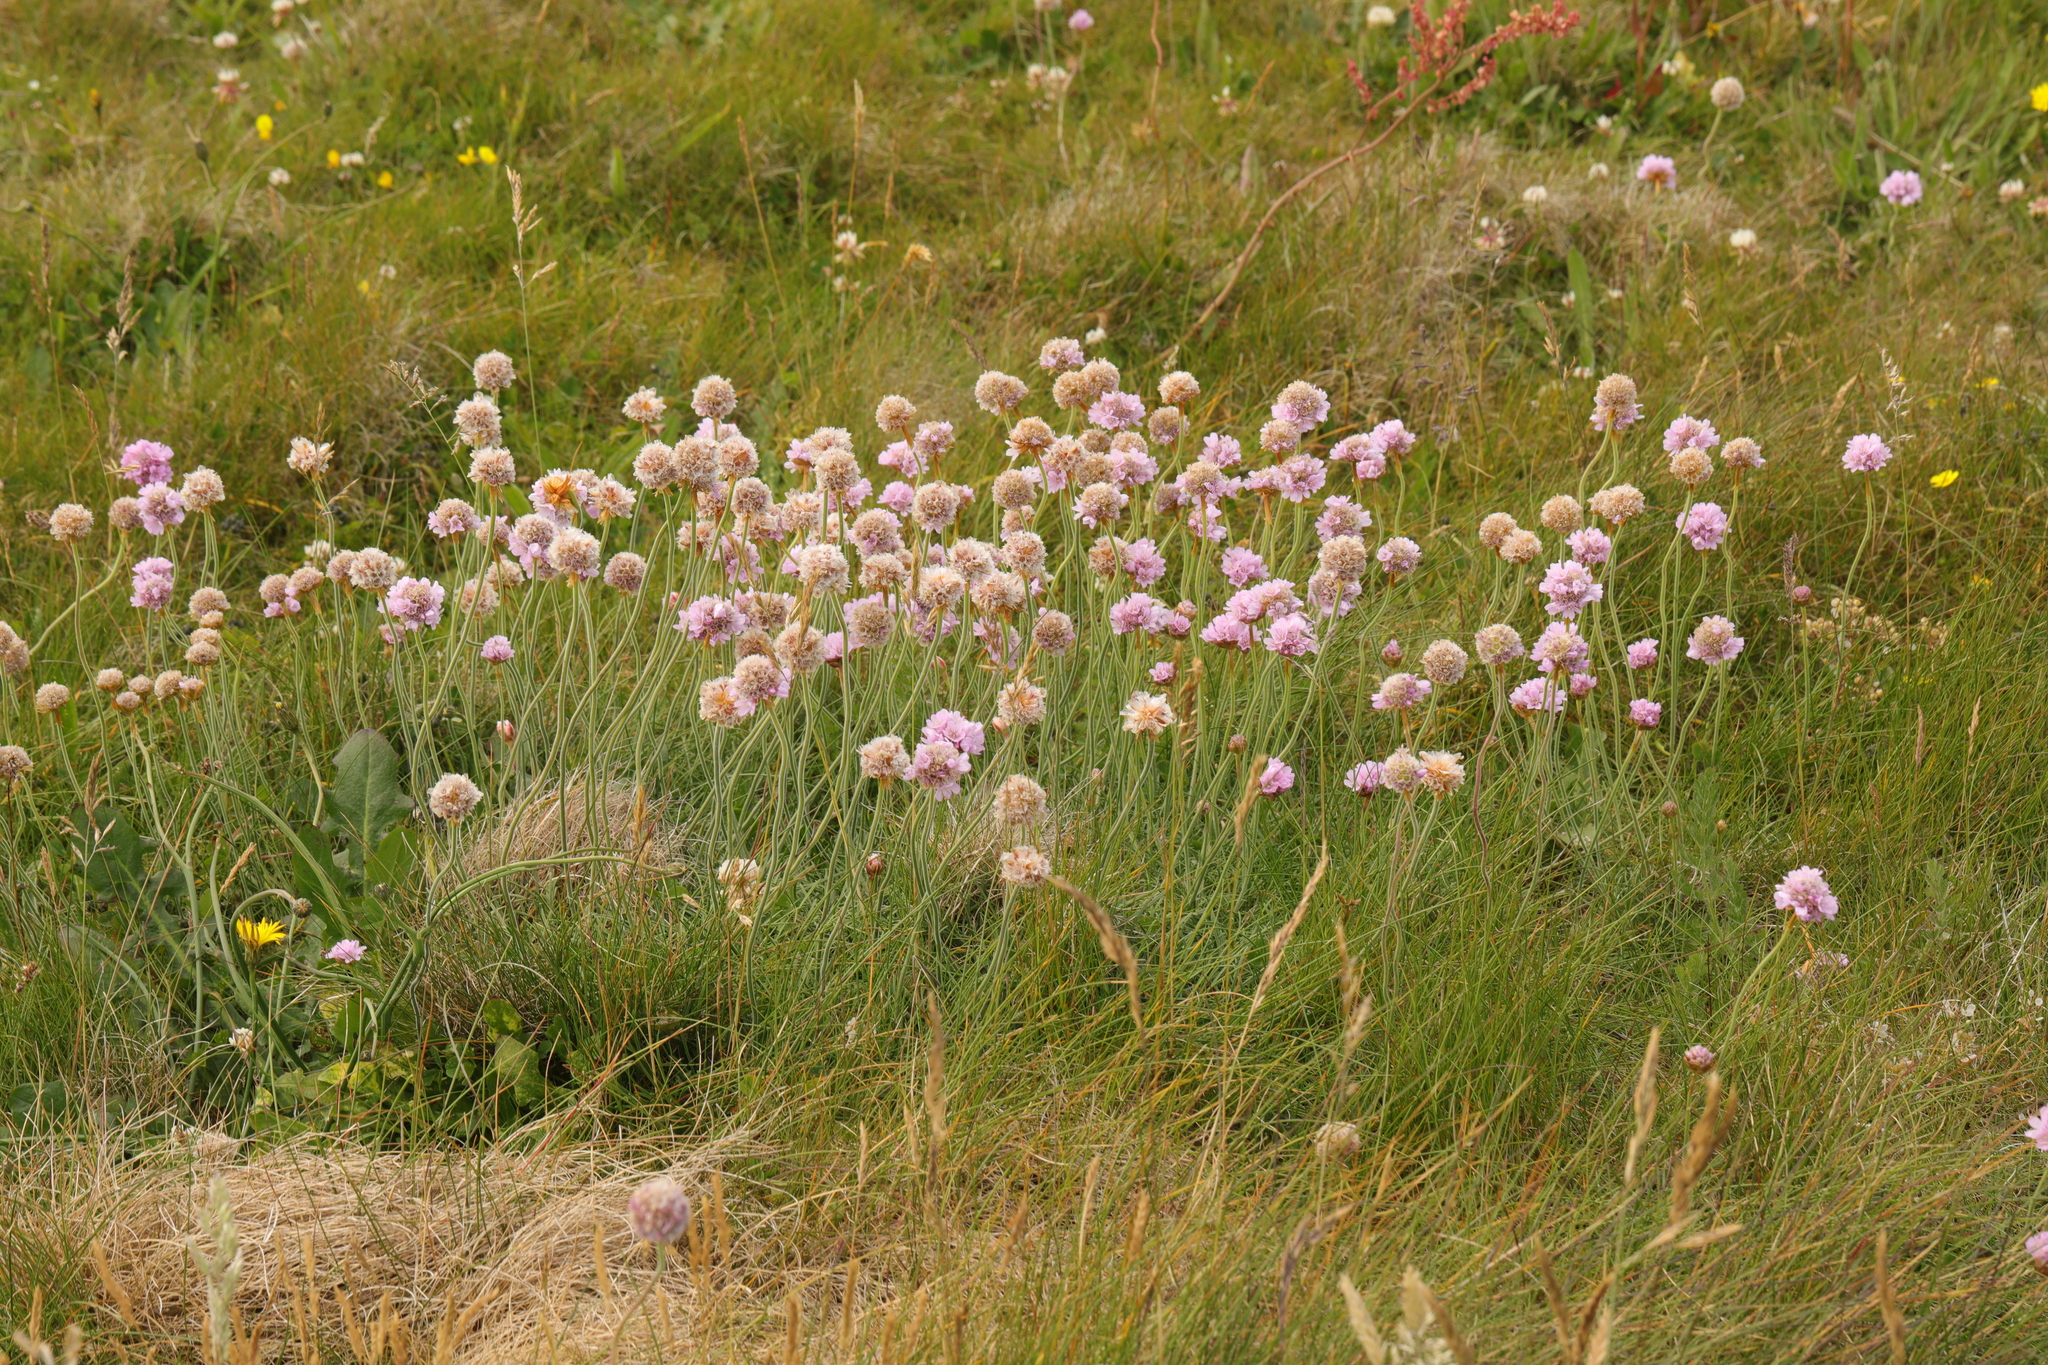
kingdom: Plantae
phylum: Tracheophyta
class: Magnoliopsida
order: Caryophyllales
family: Plumbaginaceae
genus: Armeria
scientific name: Armeria maritima
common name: Thrift
